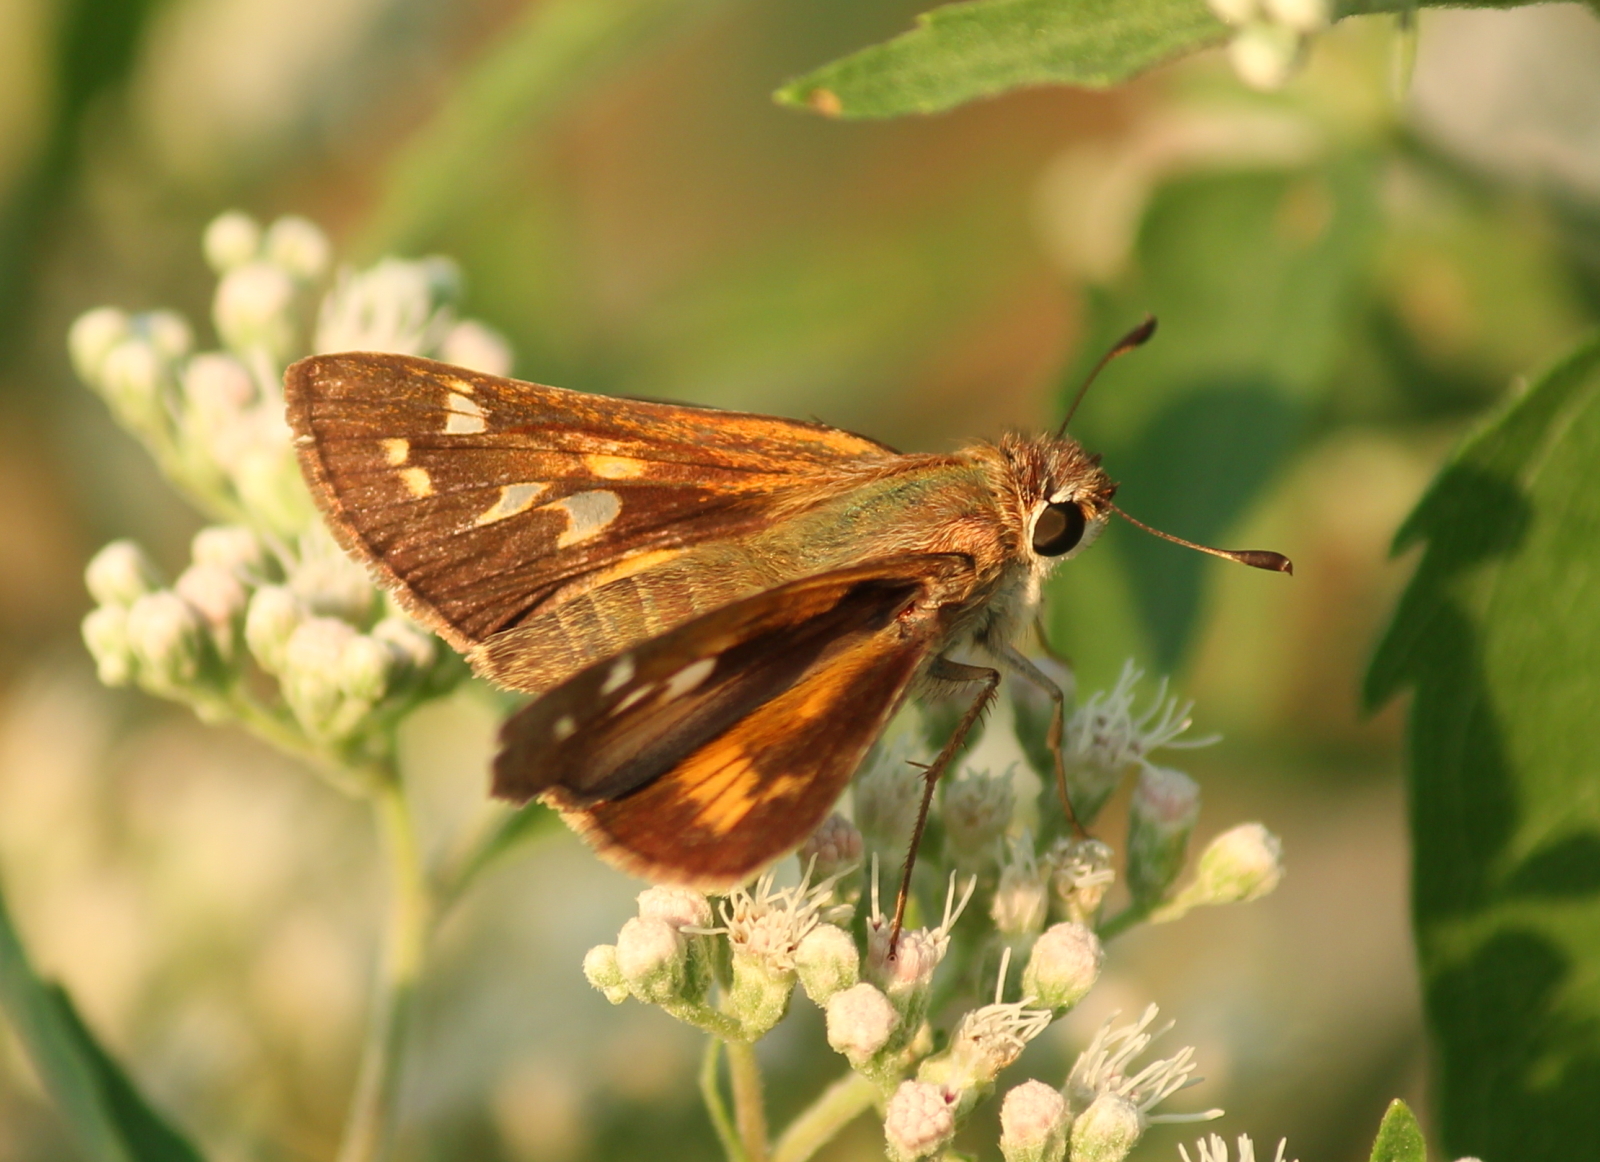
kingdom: Animalia
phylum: Arthropoda
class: Insecta
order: Lepidoptera
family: Hesperiidae
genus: Atalopedes
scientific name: Atalopedes
